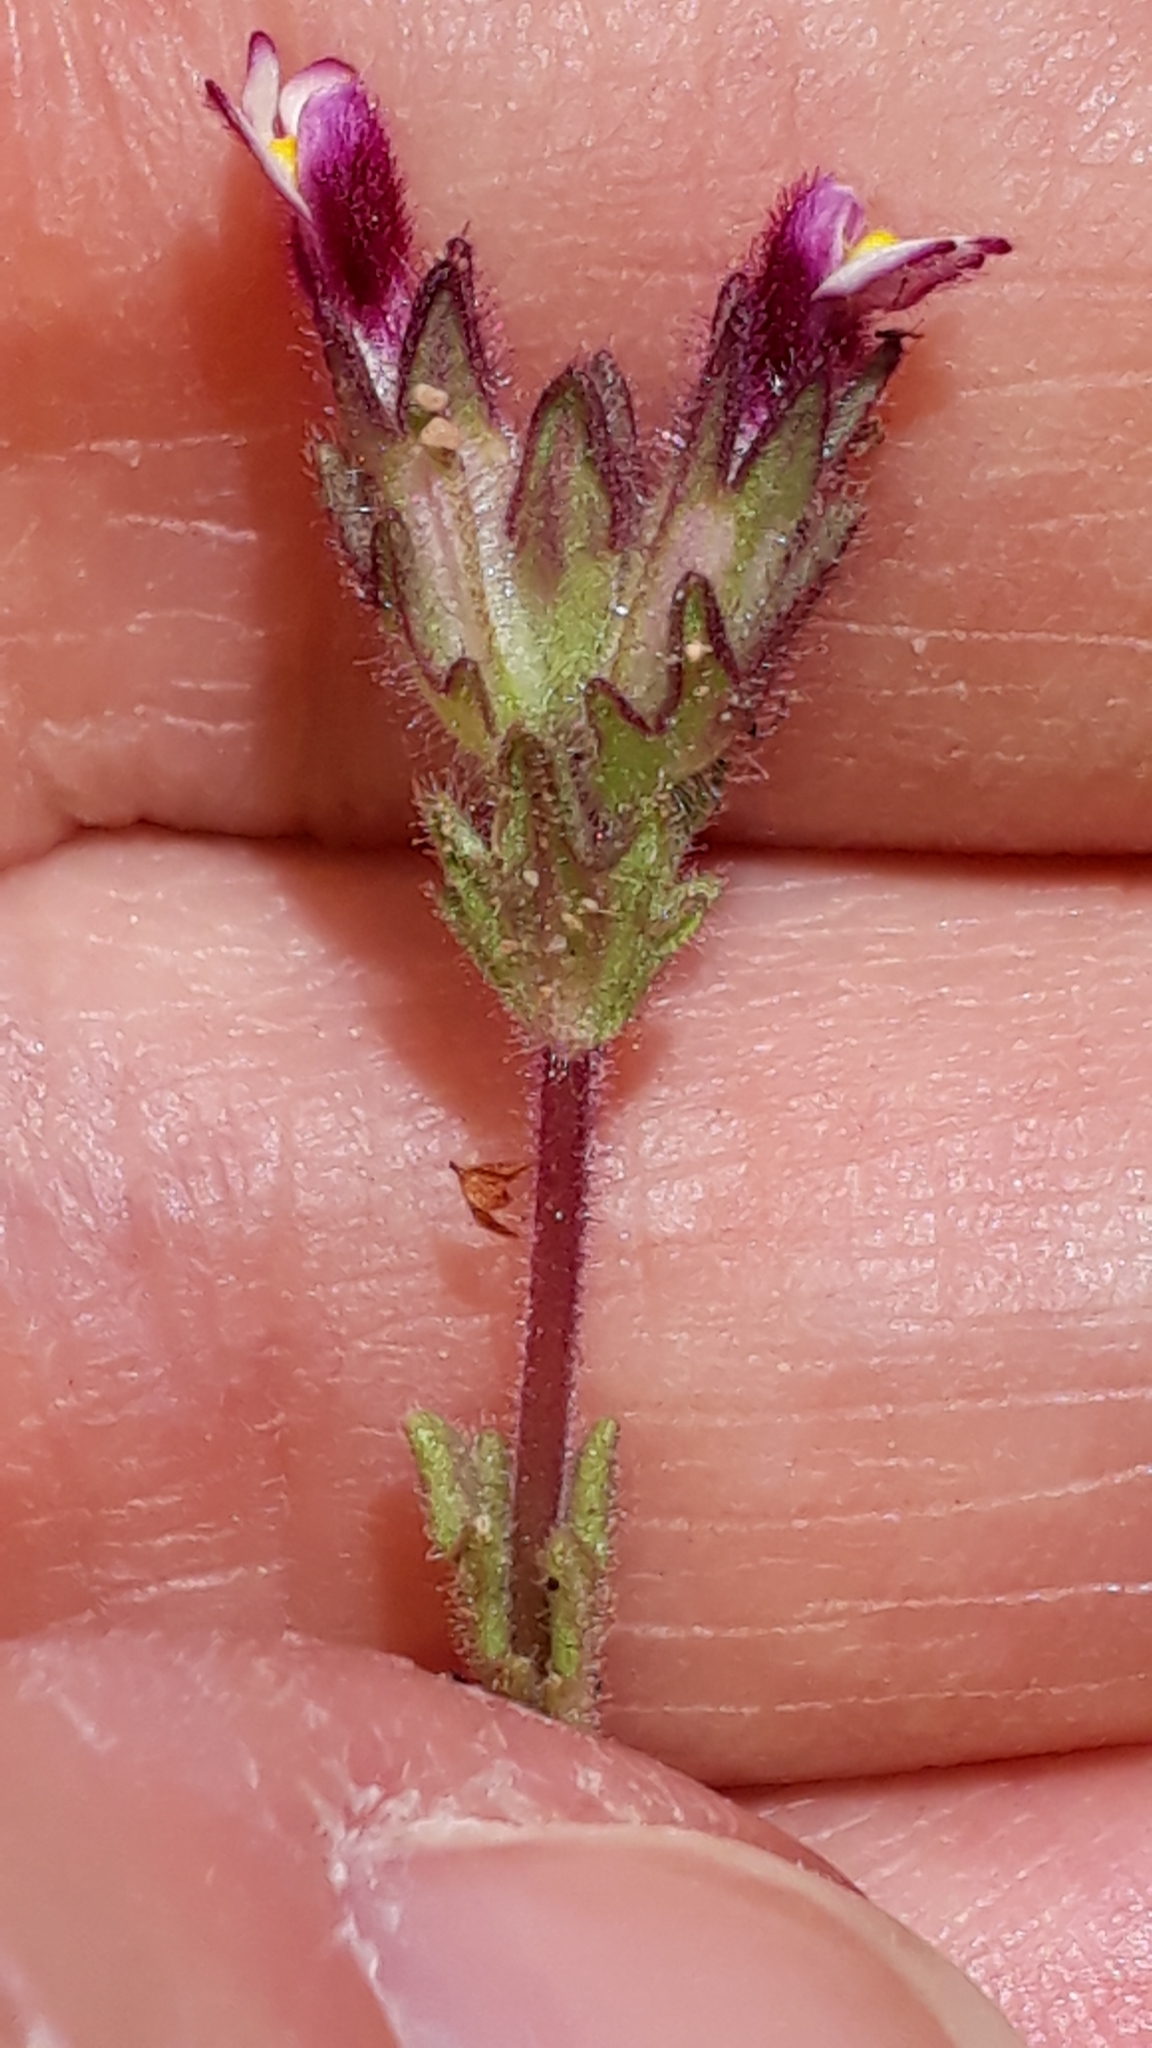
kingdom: Plantae
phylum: Tracheophyta
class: Magnoliopsida
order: Lamiales
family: Orobanchaceae
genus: Parentucellia
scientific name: Parentucellia latifolia
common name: Broadleaf glandweed
